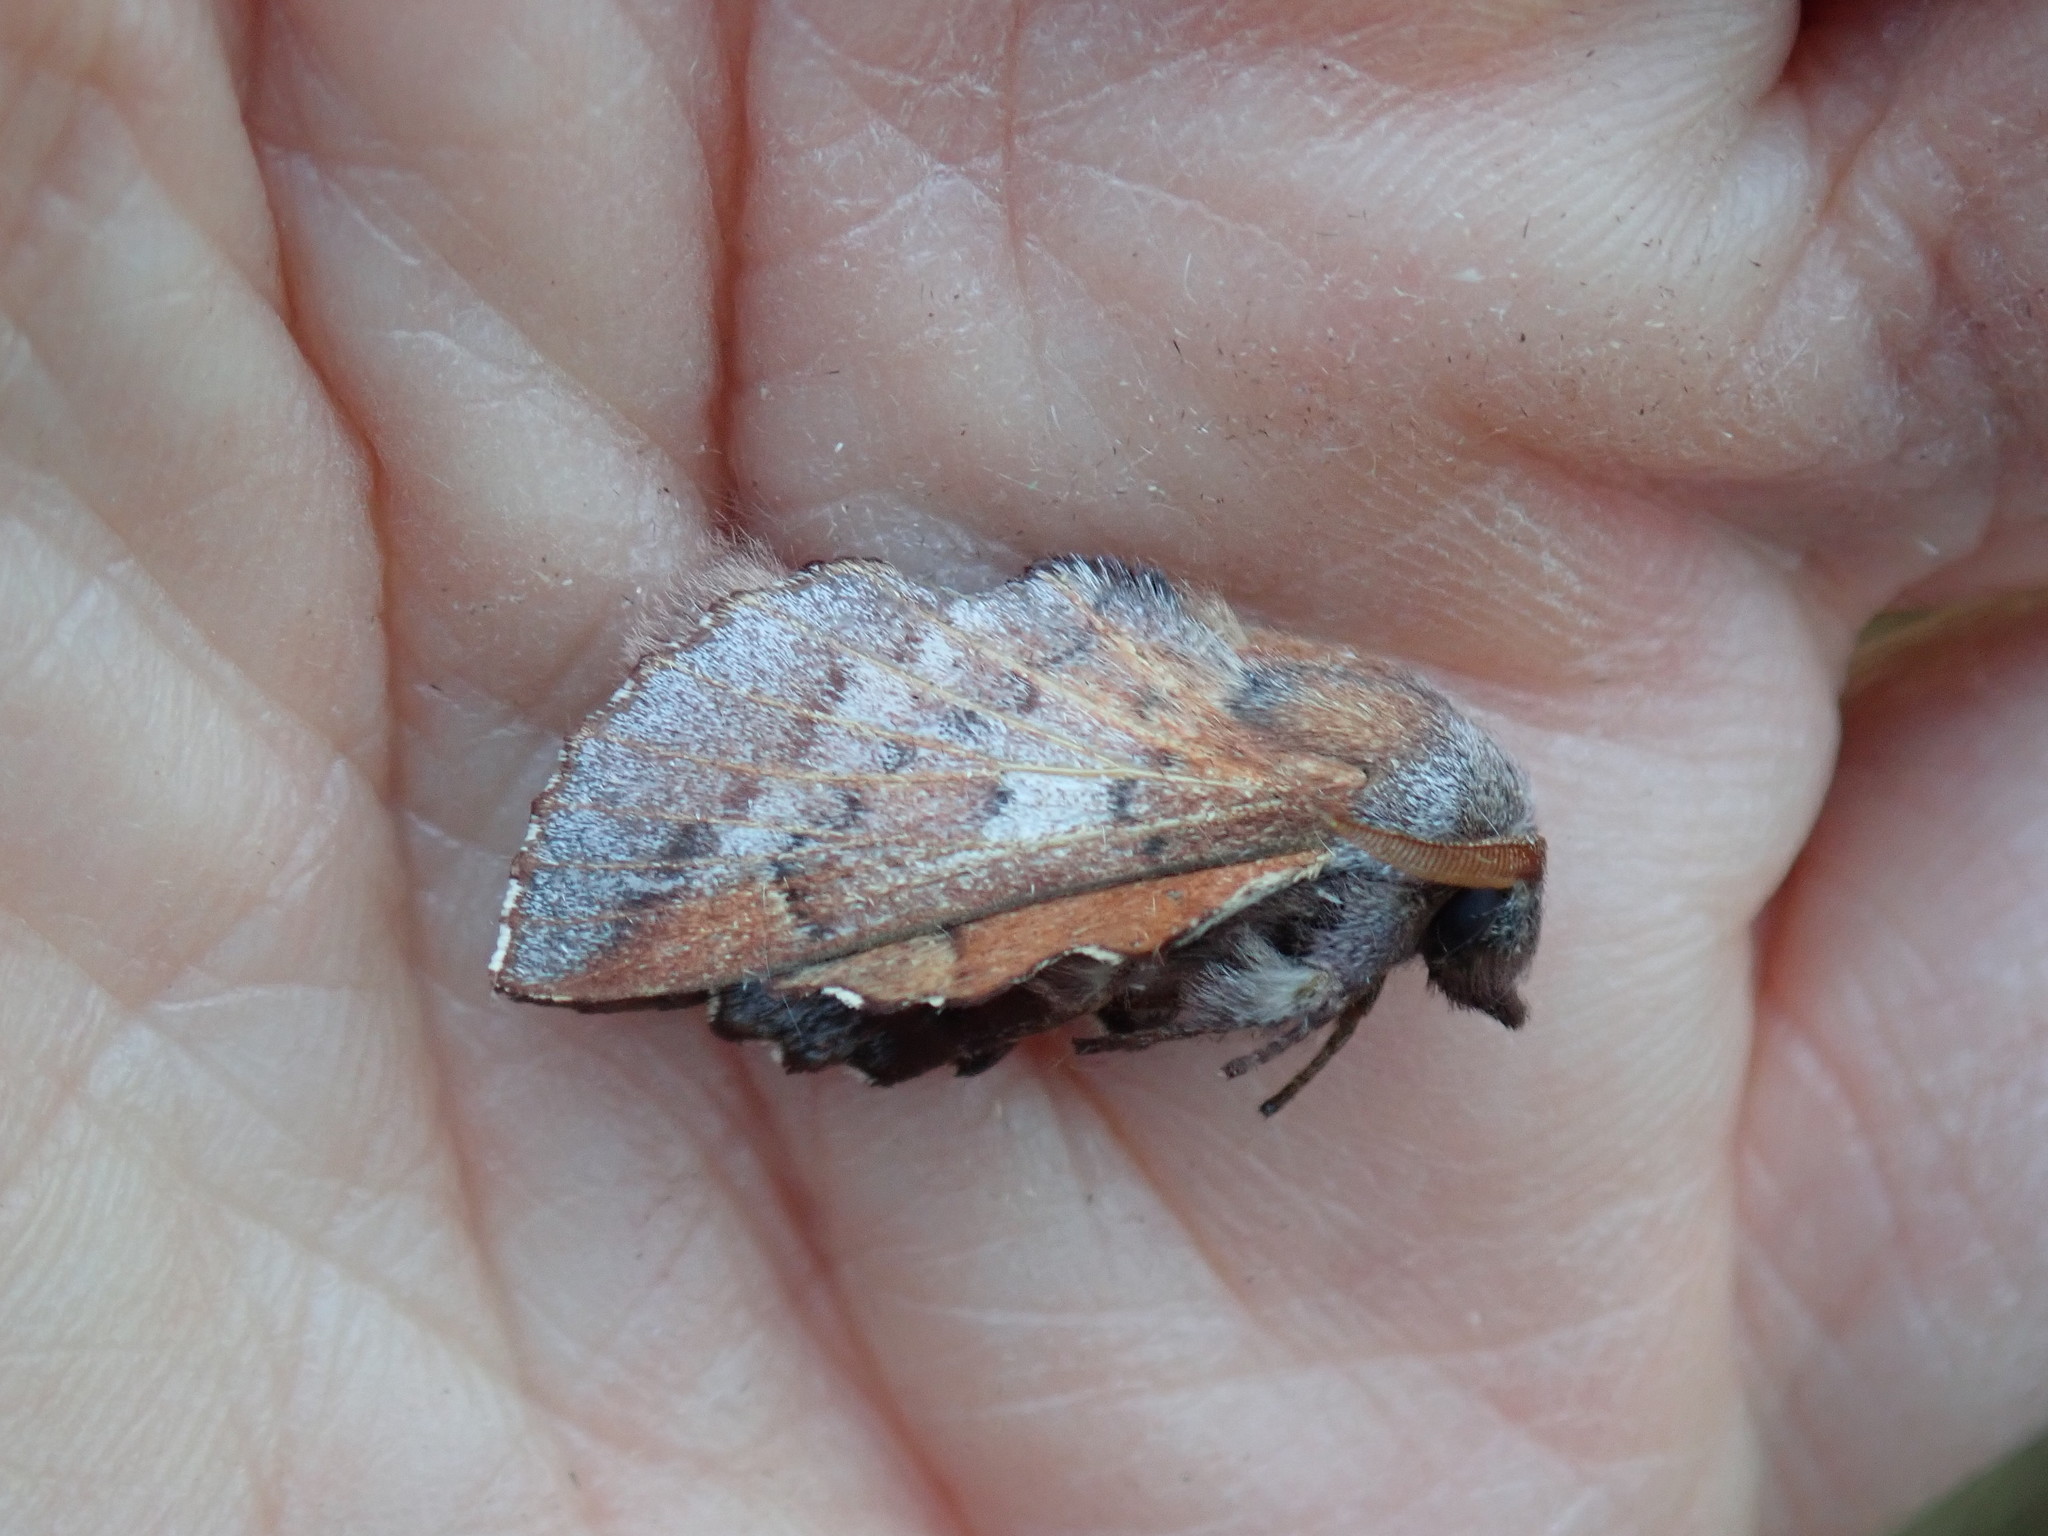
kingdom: Animalia
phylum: Arthropoda
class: Insecta
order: Lepidoptera
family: Lasiocampidae
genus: Phyllodesma
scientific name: Phyllodesma americana
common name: American lappet moth
